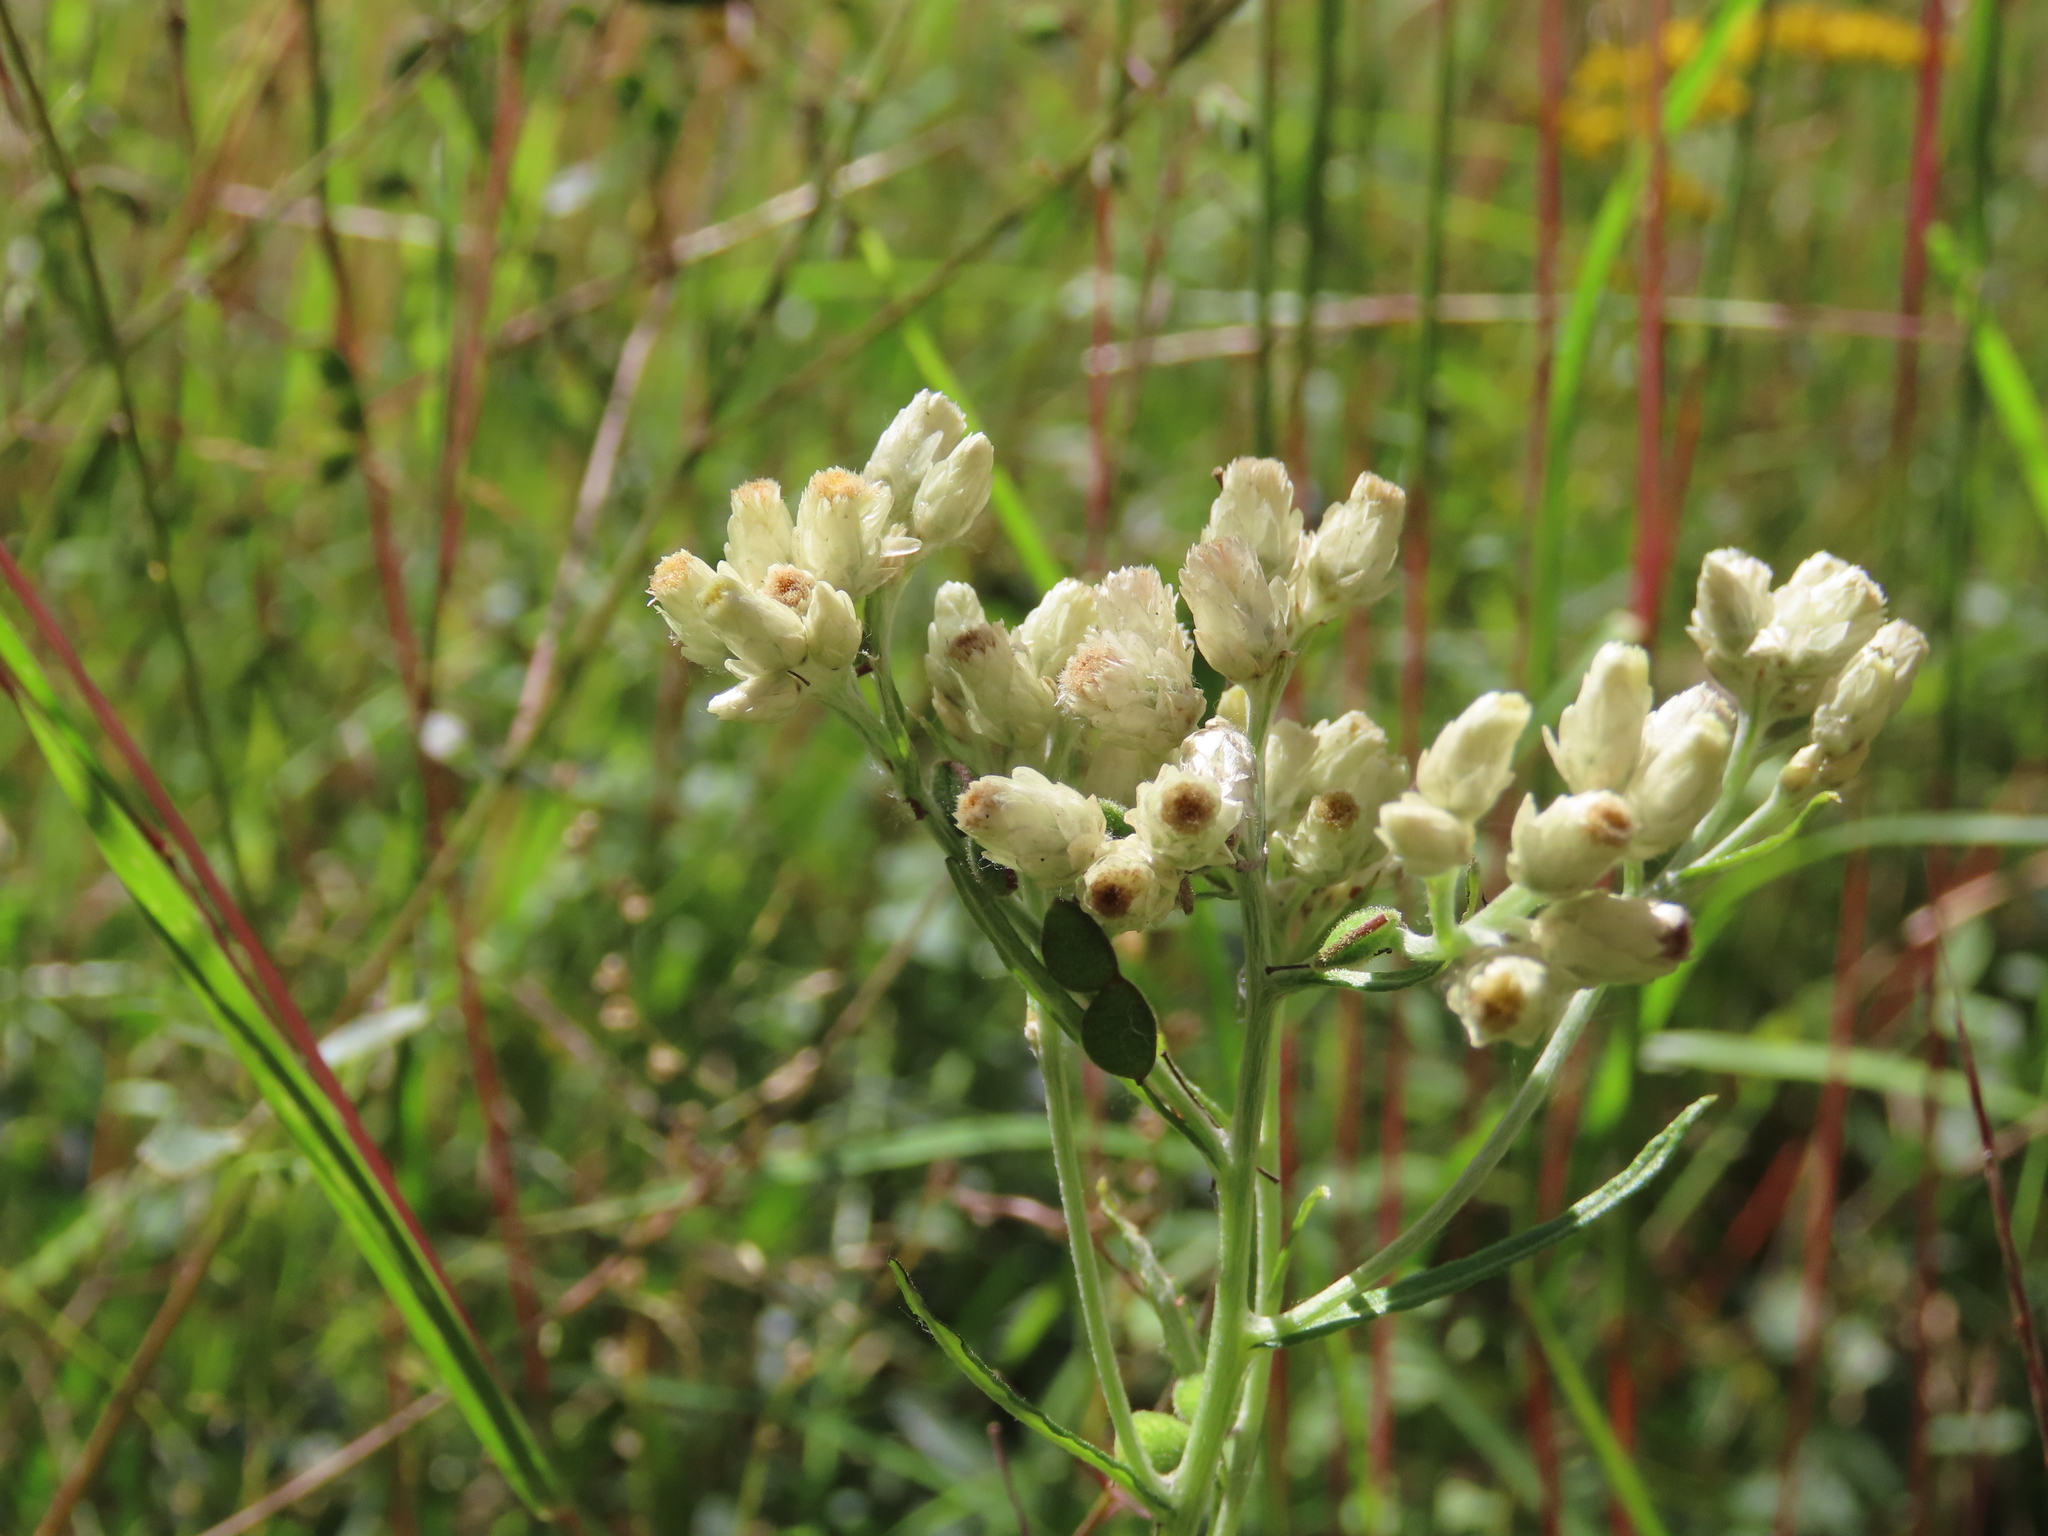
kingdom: Plantae
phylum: Tracheophyta
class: Magnoliopsida
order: Asterales
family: Asteraceae
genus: Pseudognaphalium
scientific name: Pseudognaphalium obtusifolium
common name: Eastern rabbit-tobacco
